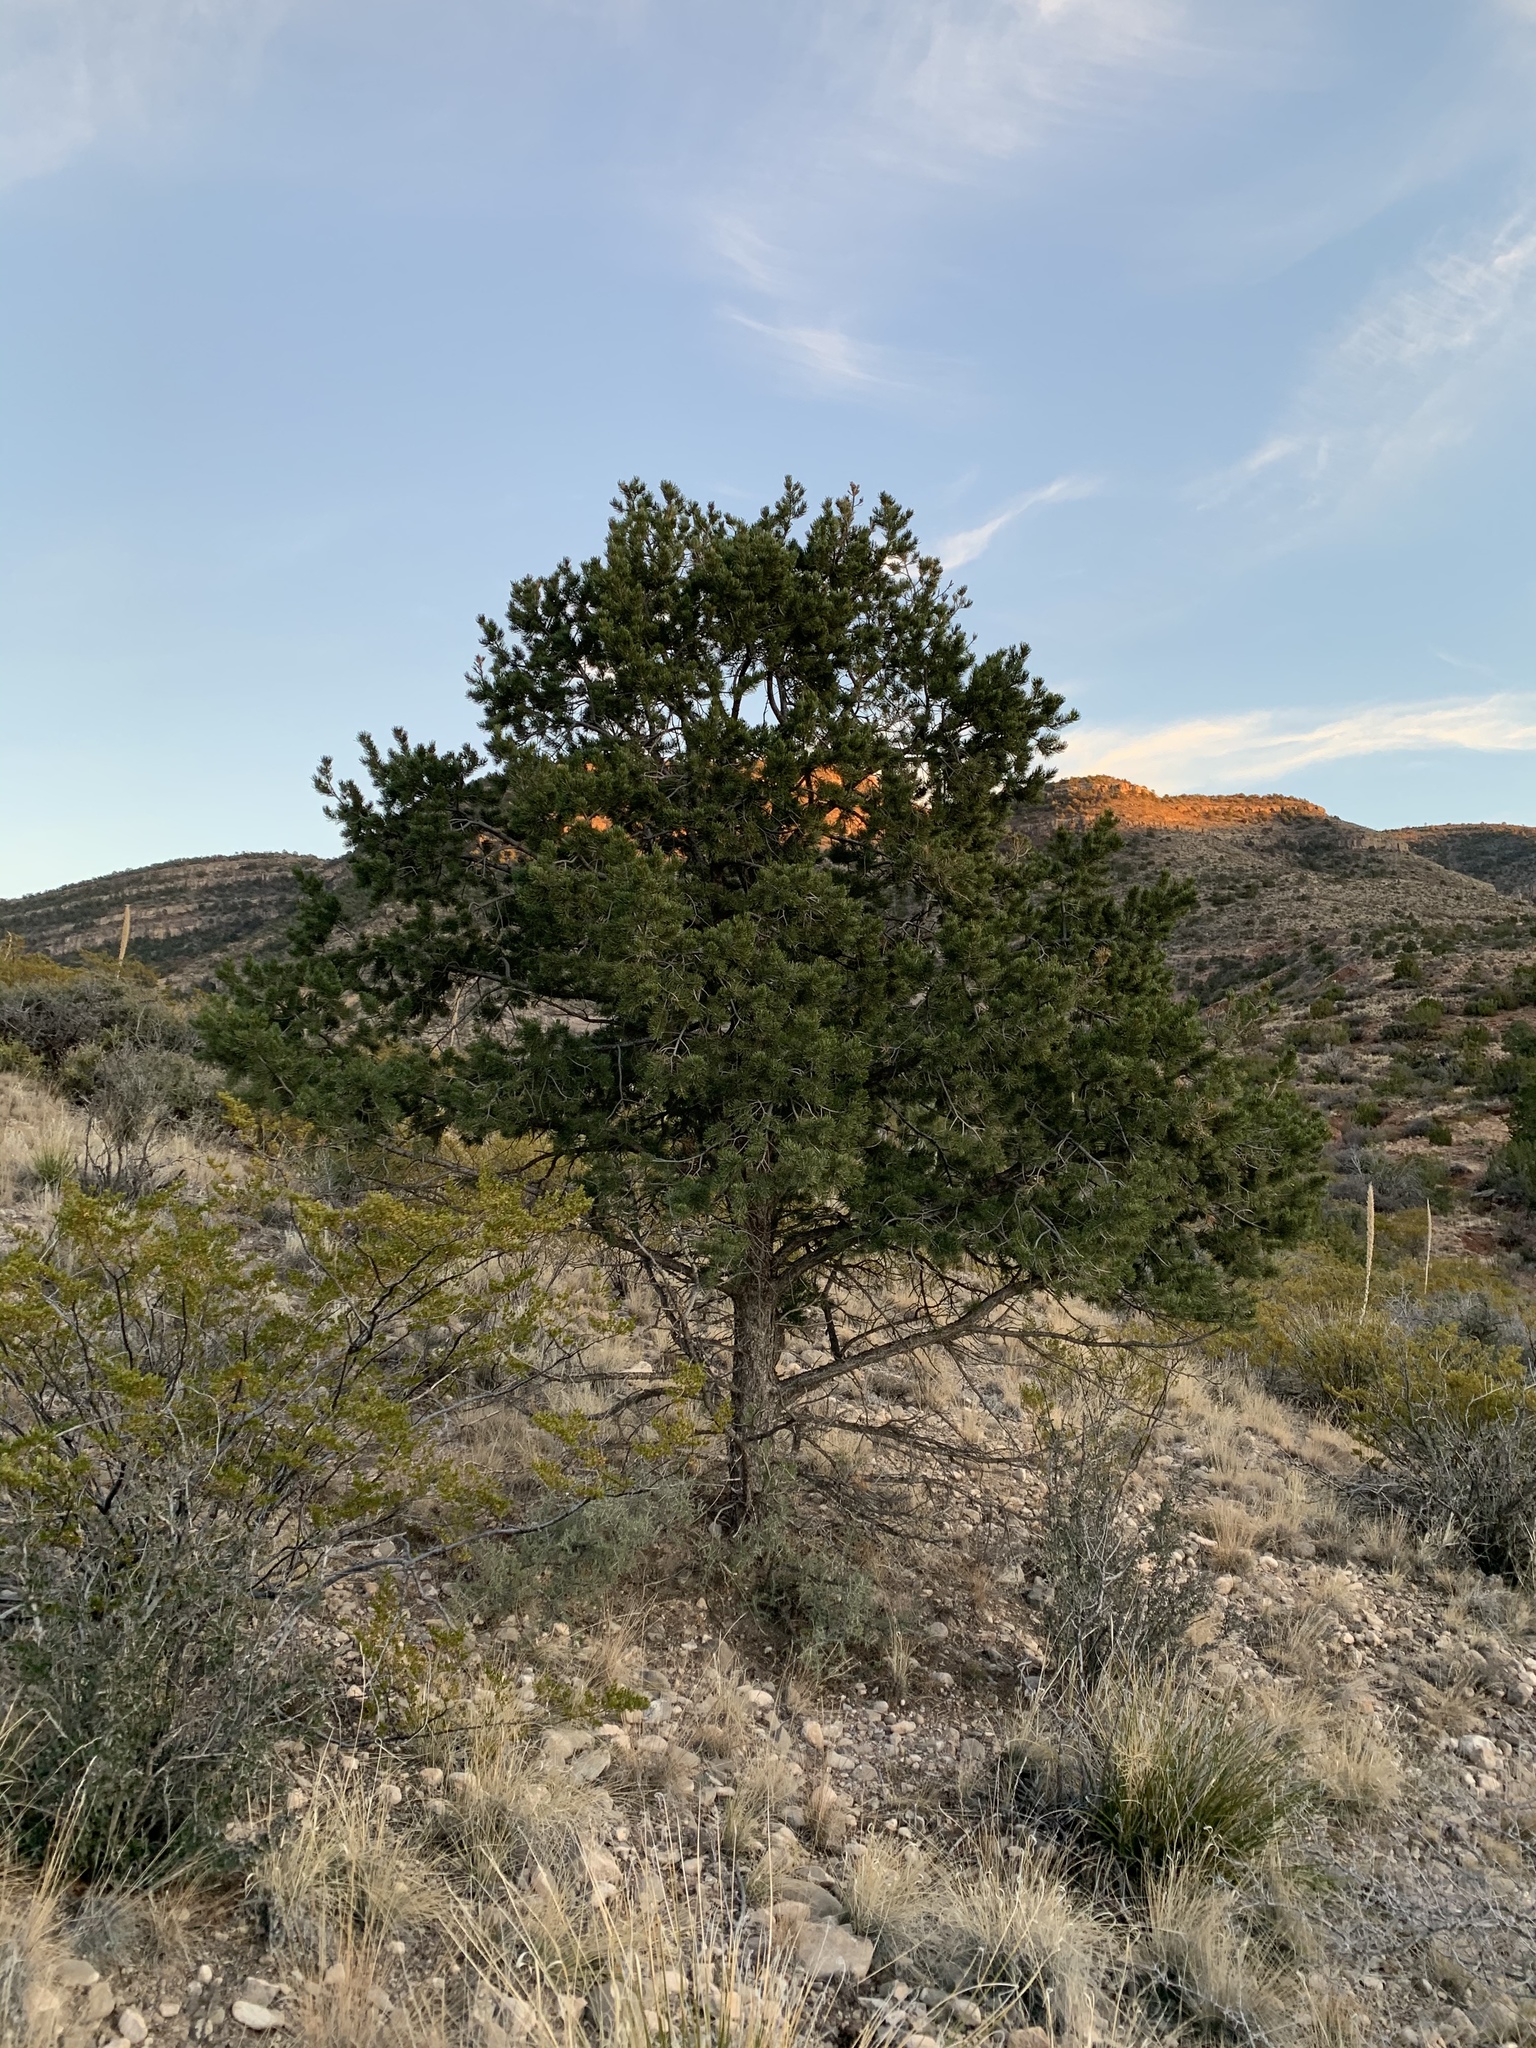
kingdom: Plantae
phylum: Tracheophyta
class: Pinopsida
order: Pinales
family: Pinaceae
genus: Pinus
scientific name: Pinus edulis
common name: Colorado pinyon
